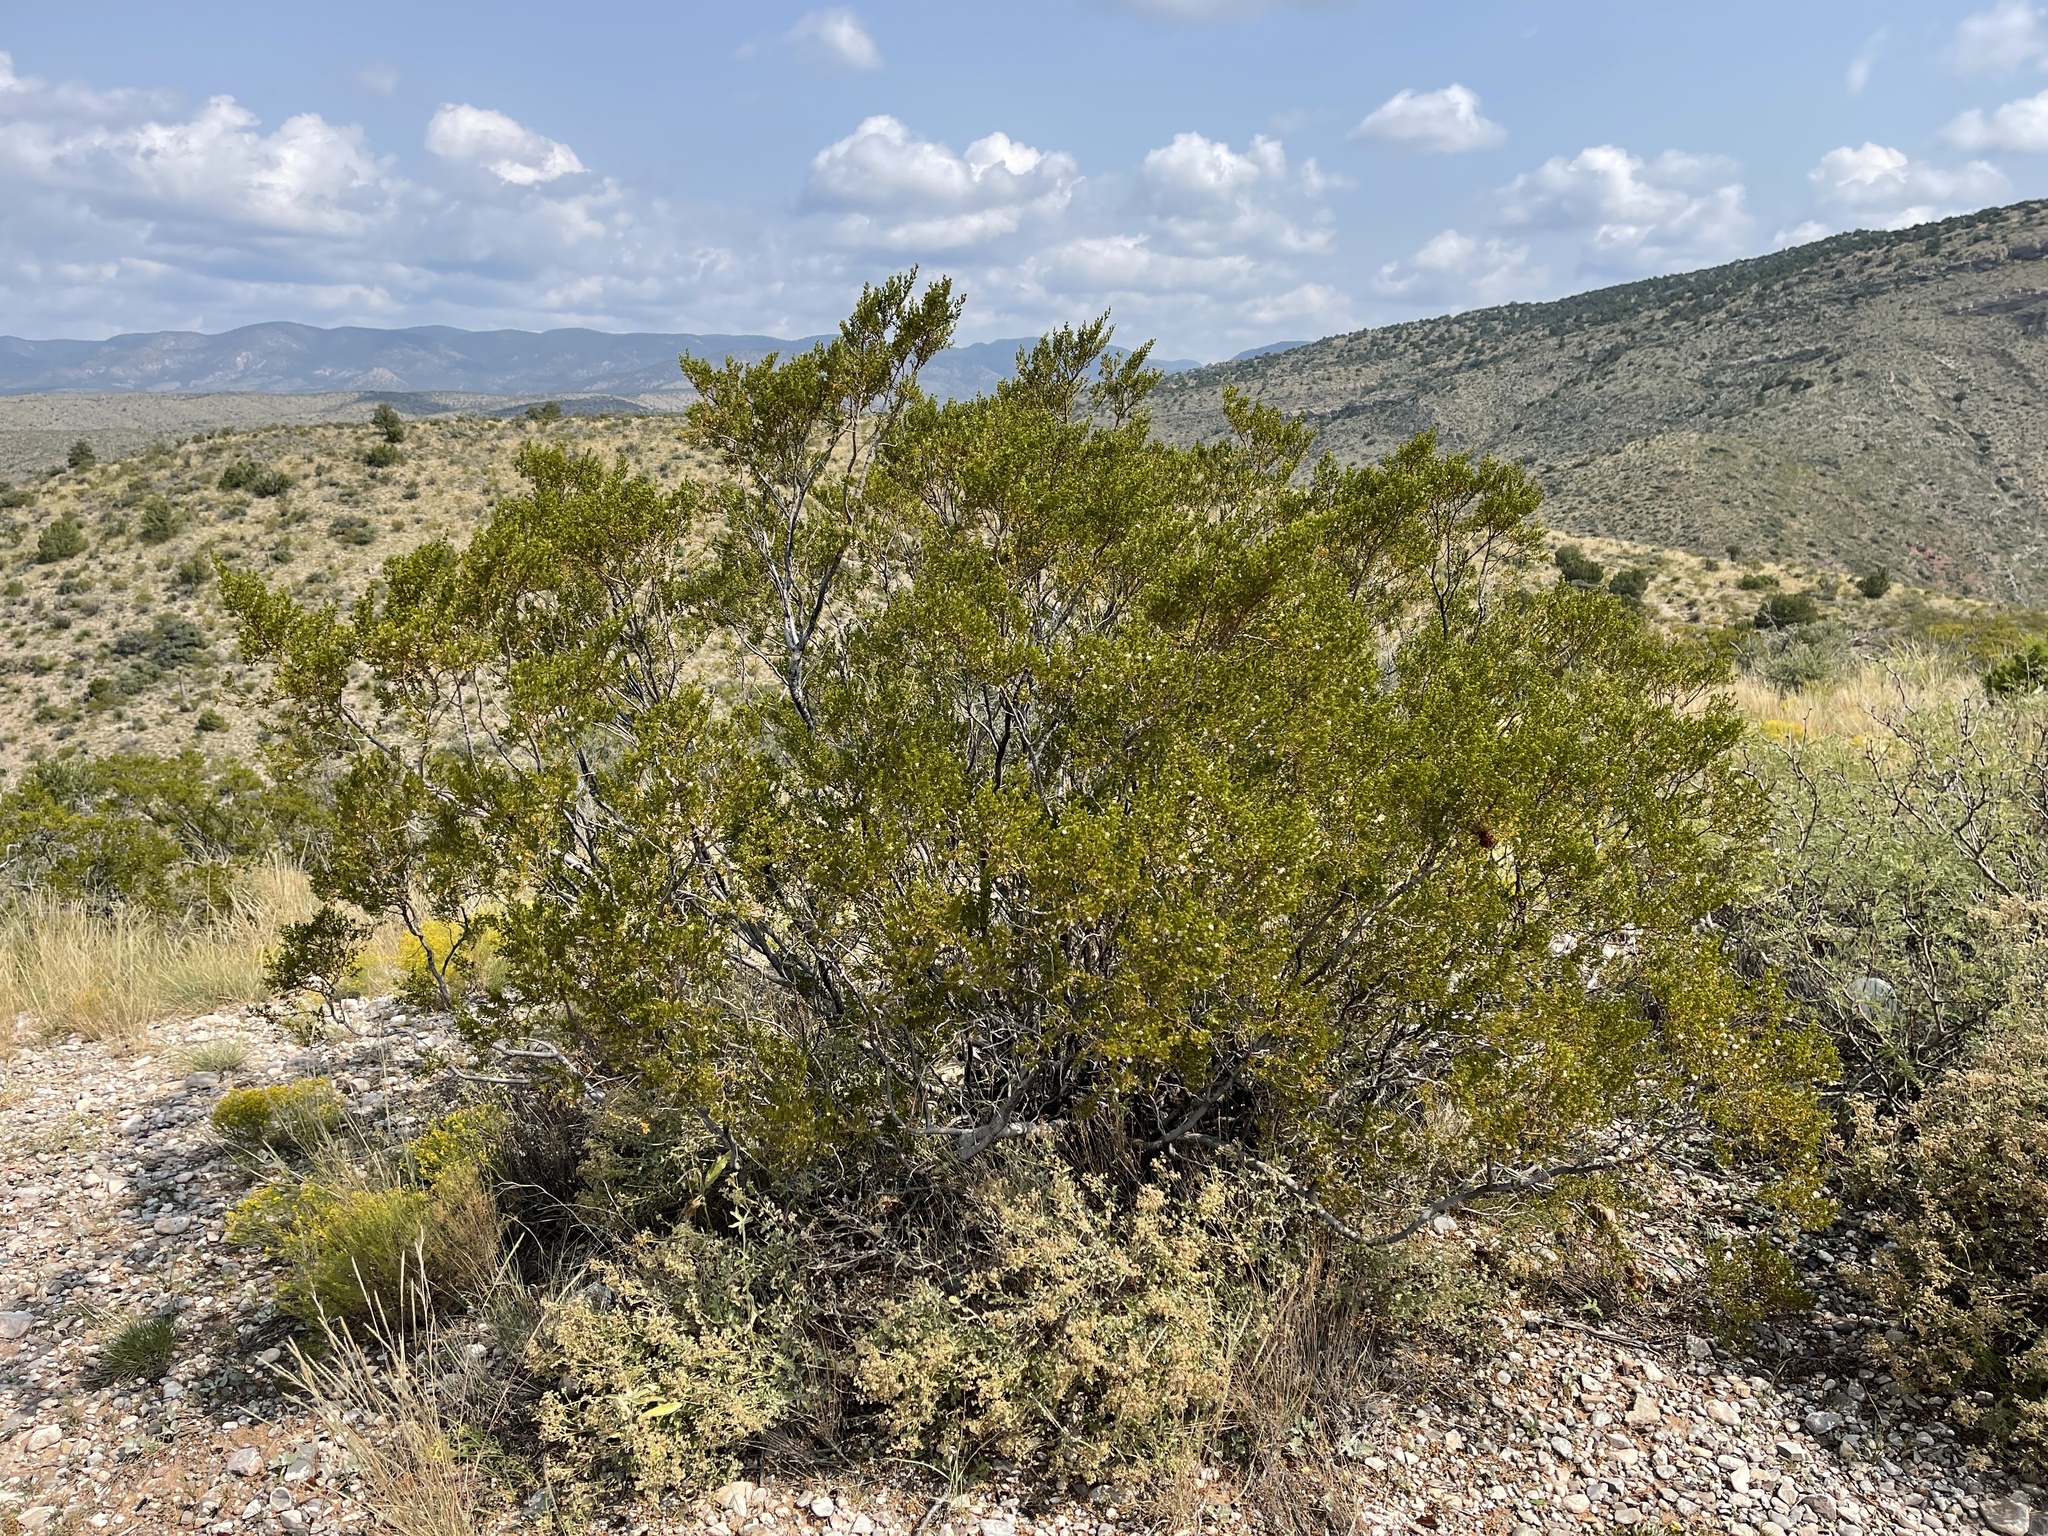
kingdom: Plantae
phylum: Tracheophyta
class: Magnoliopsida
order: Zygophyllales
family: Zygophyllaceae
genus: Larrea
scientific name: Larrea tridentata
